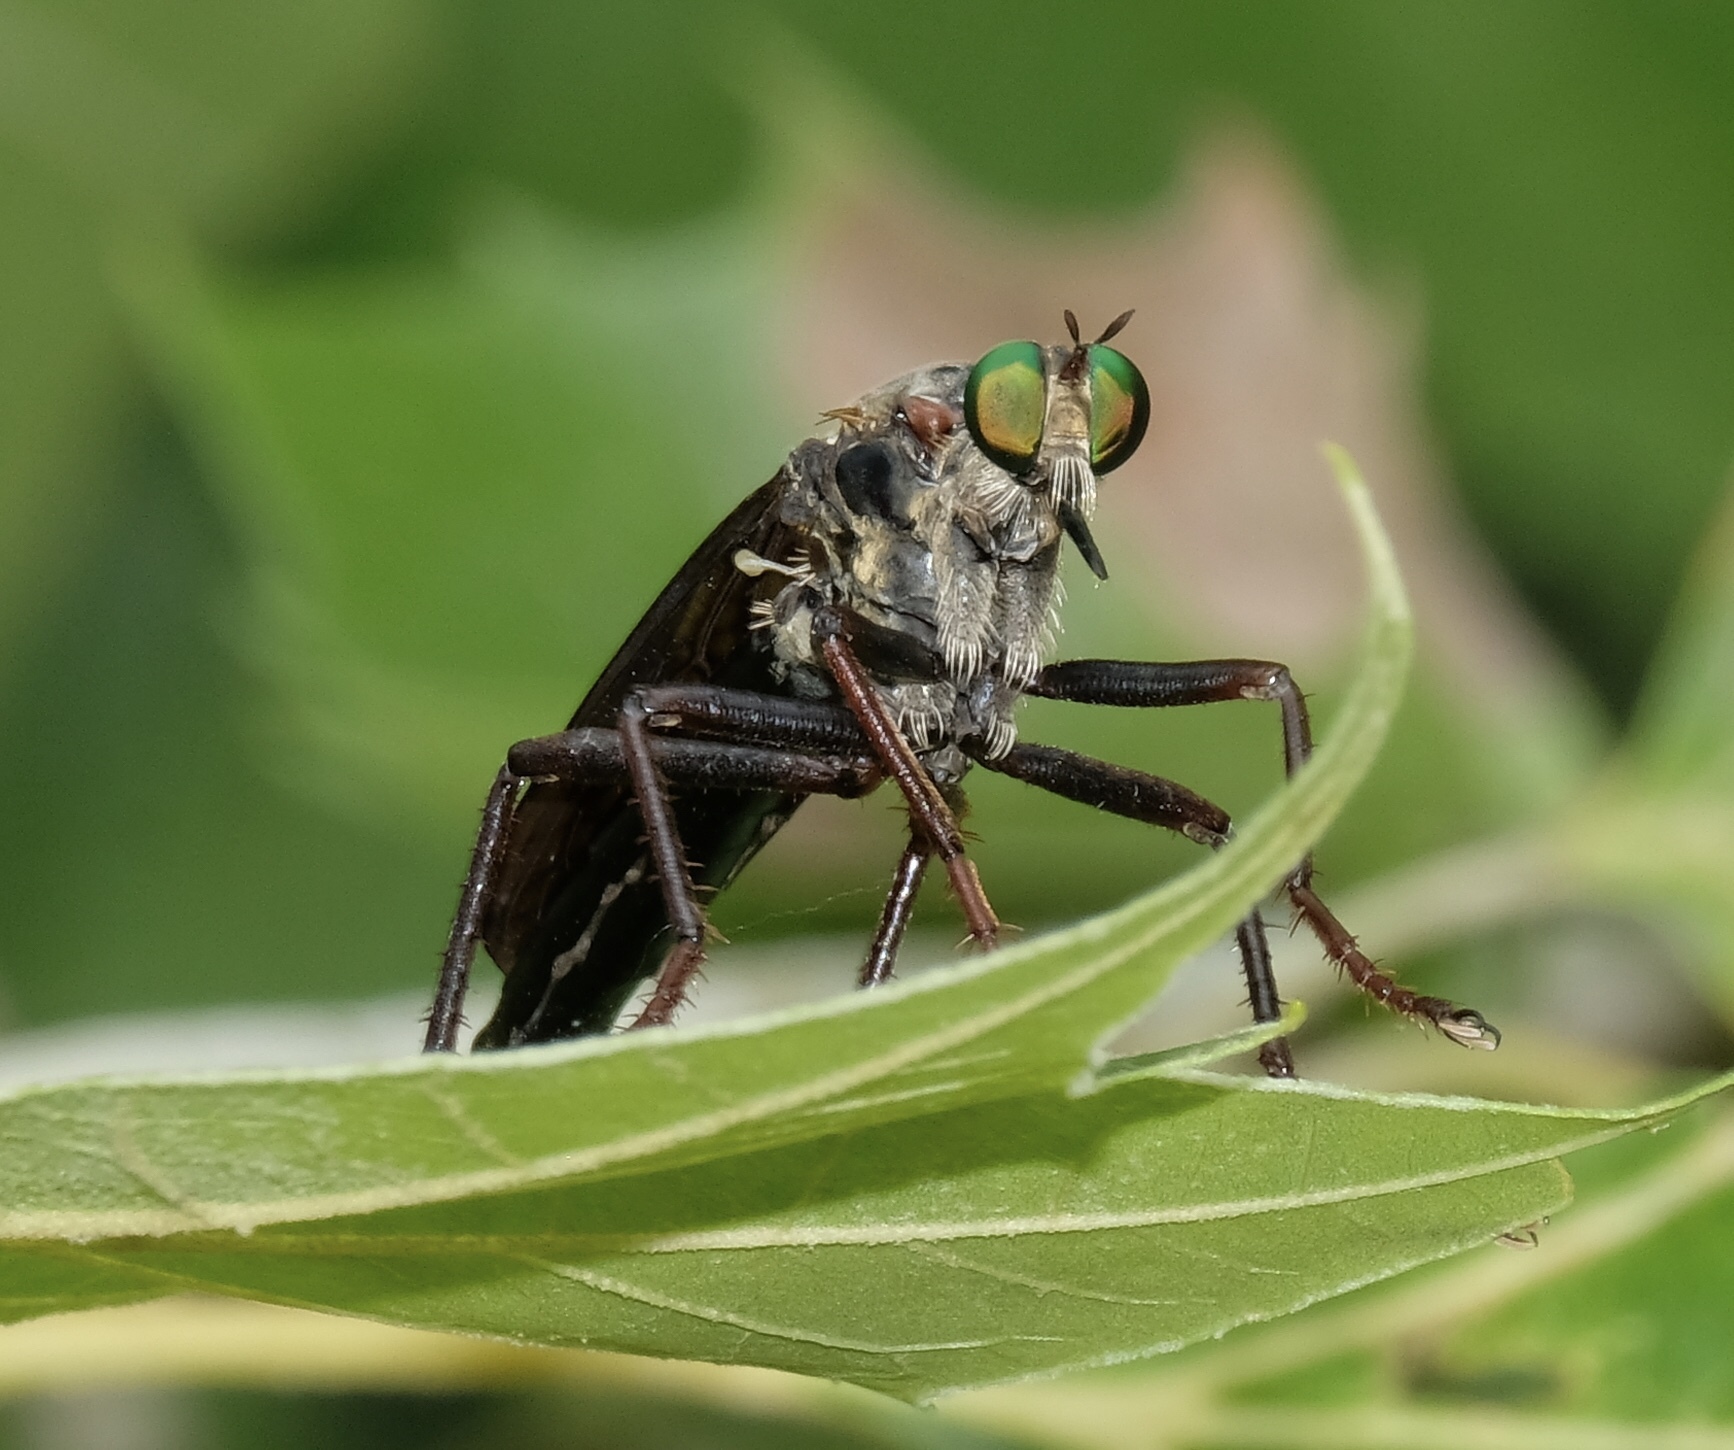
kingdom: Animalia
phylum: Arthropoda
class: Insecta
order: Diptera
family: Asilidae
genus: Microstylum
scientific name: Microstylum morosum
